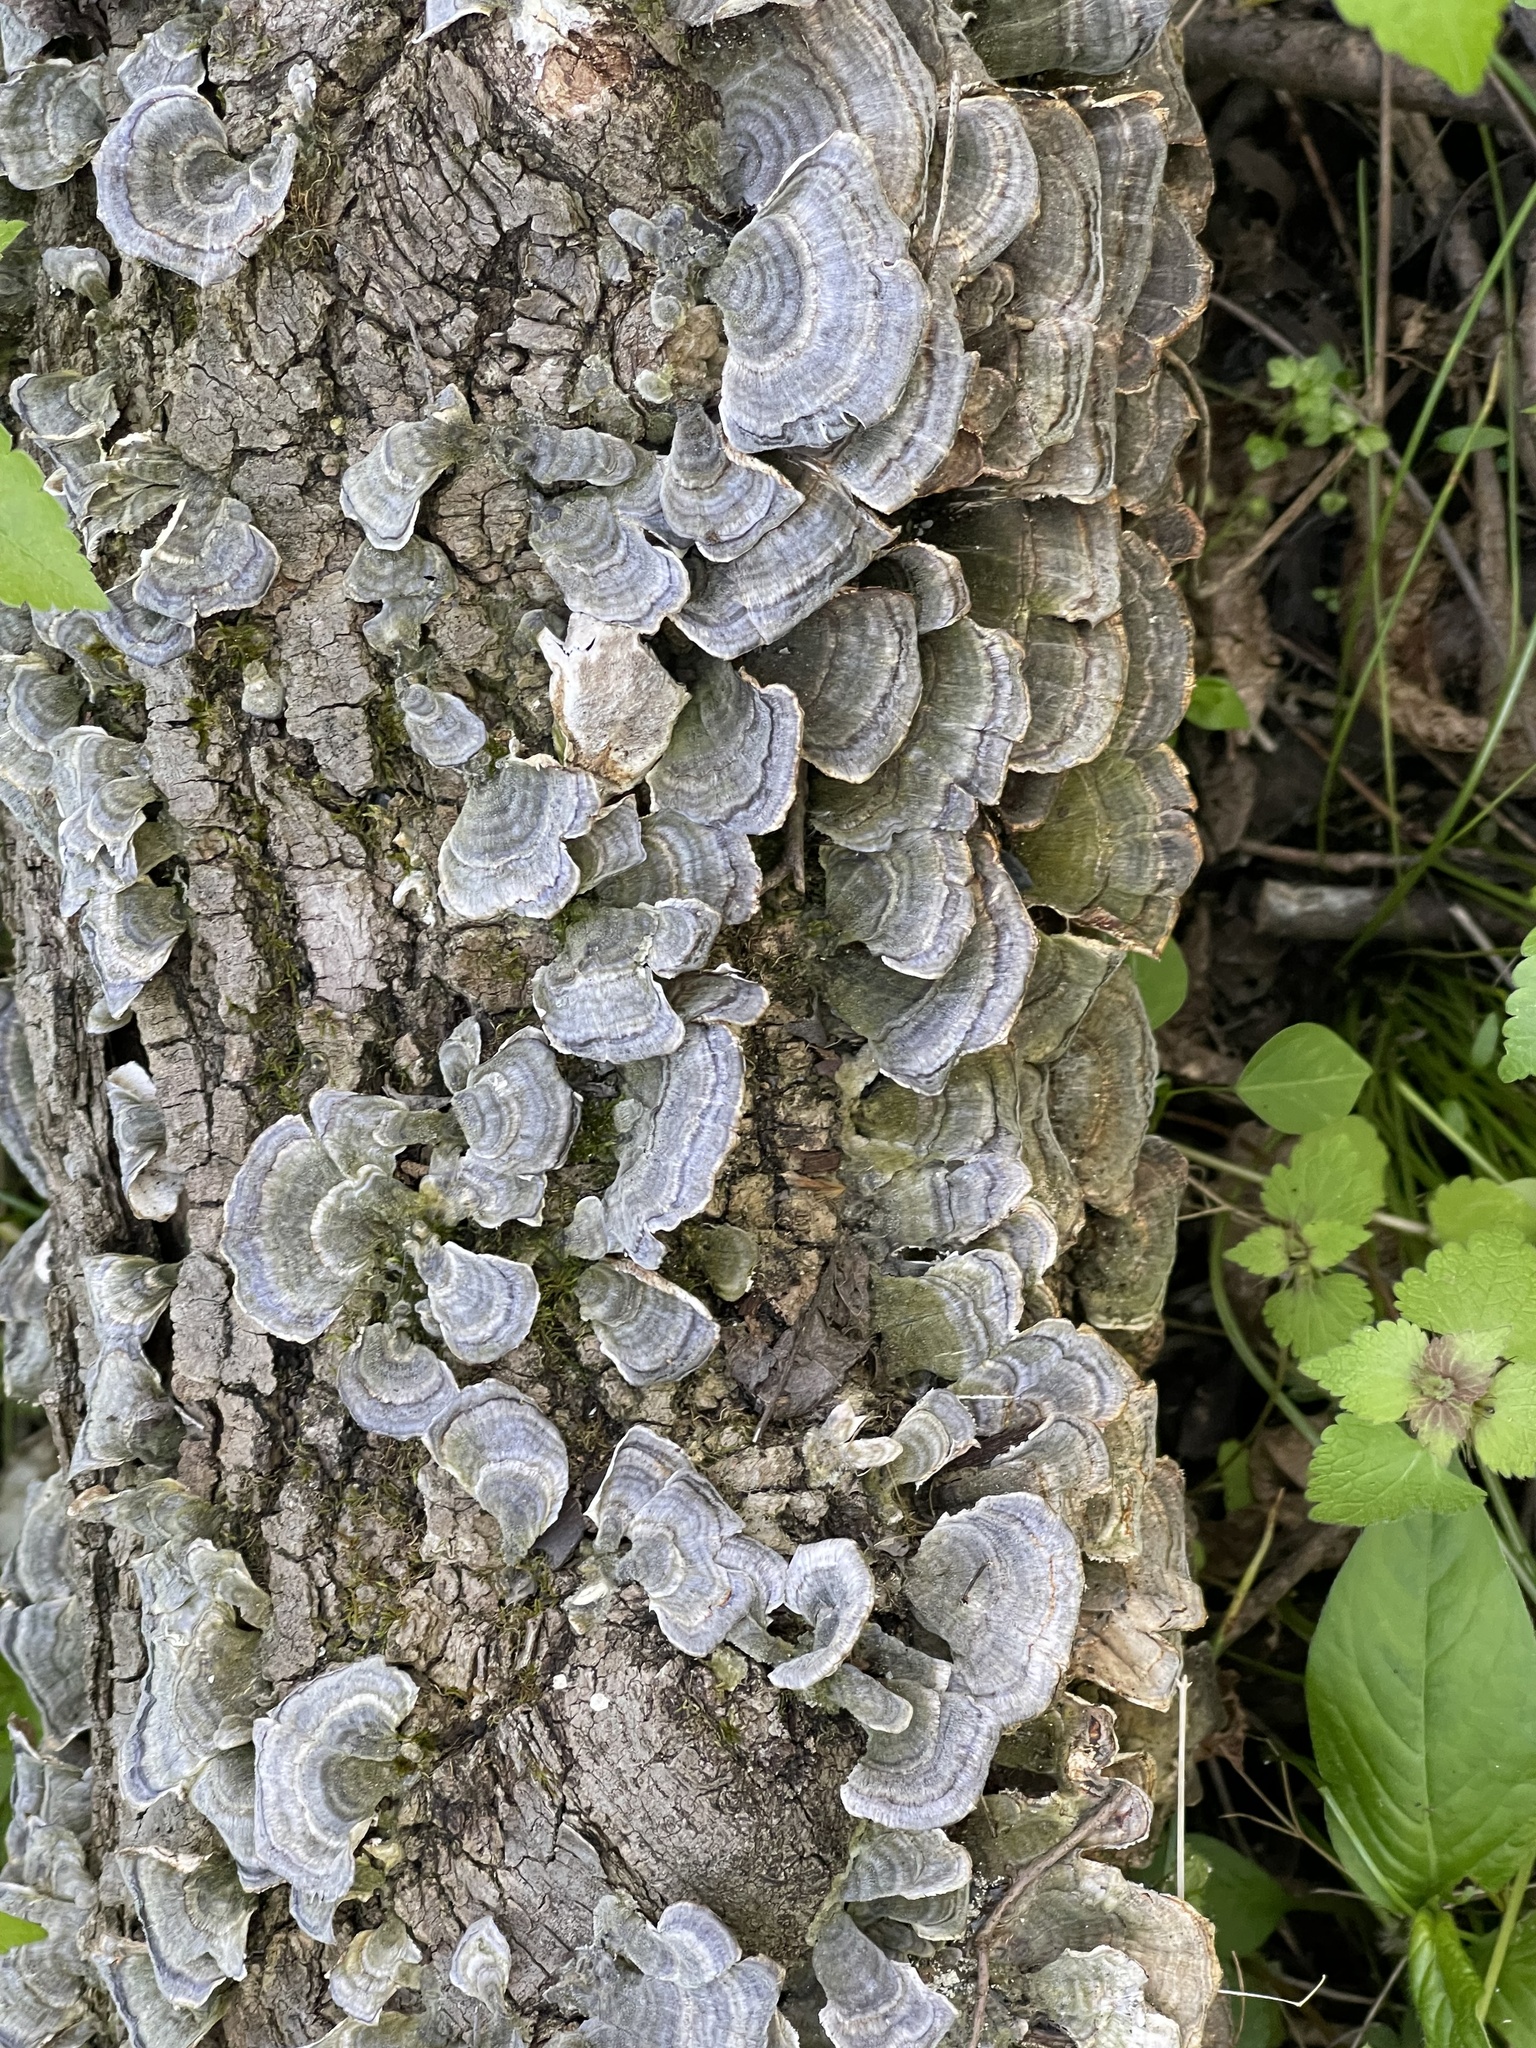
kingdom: Fungi
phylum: Basidiomycota
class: Agaricomycetes
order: Polyporales
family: Polyporaceae
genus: Trametes
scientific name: Trametes versicolor
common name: Turkeytail
